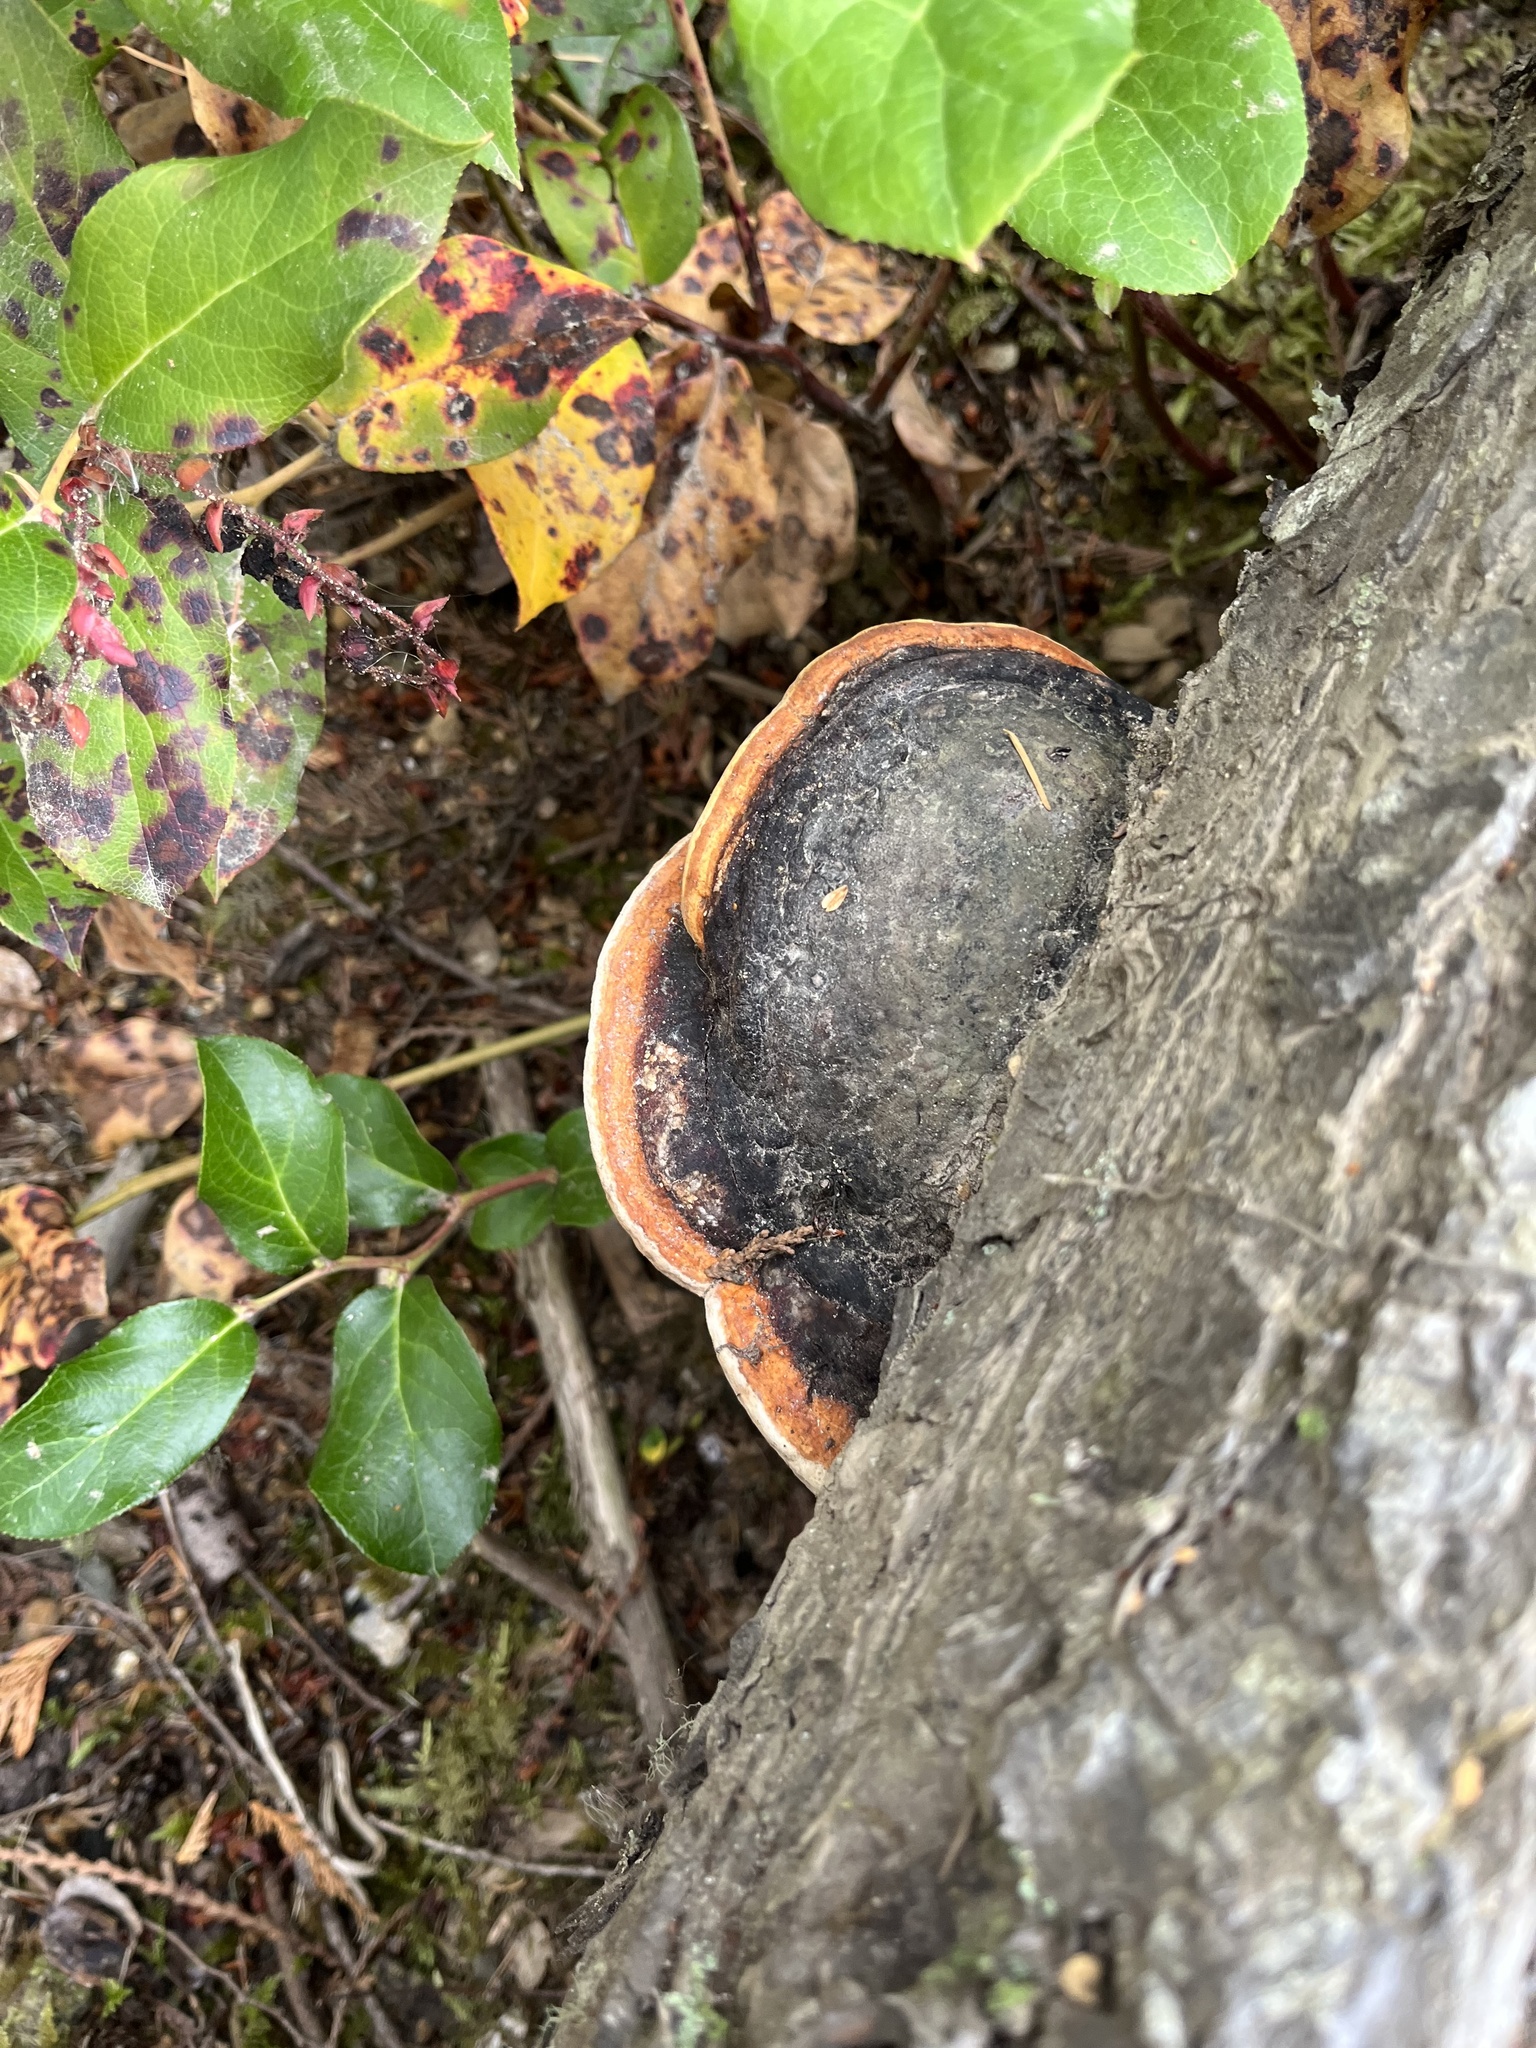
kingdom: Fungi
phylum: Basidiomycota
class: Agaricomycetes
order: Polyporales
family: Fomitopsidaceae
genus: Fomitopsis
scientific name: Fomitopsis mounceae
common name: Northern red belt
